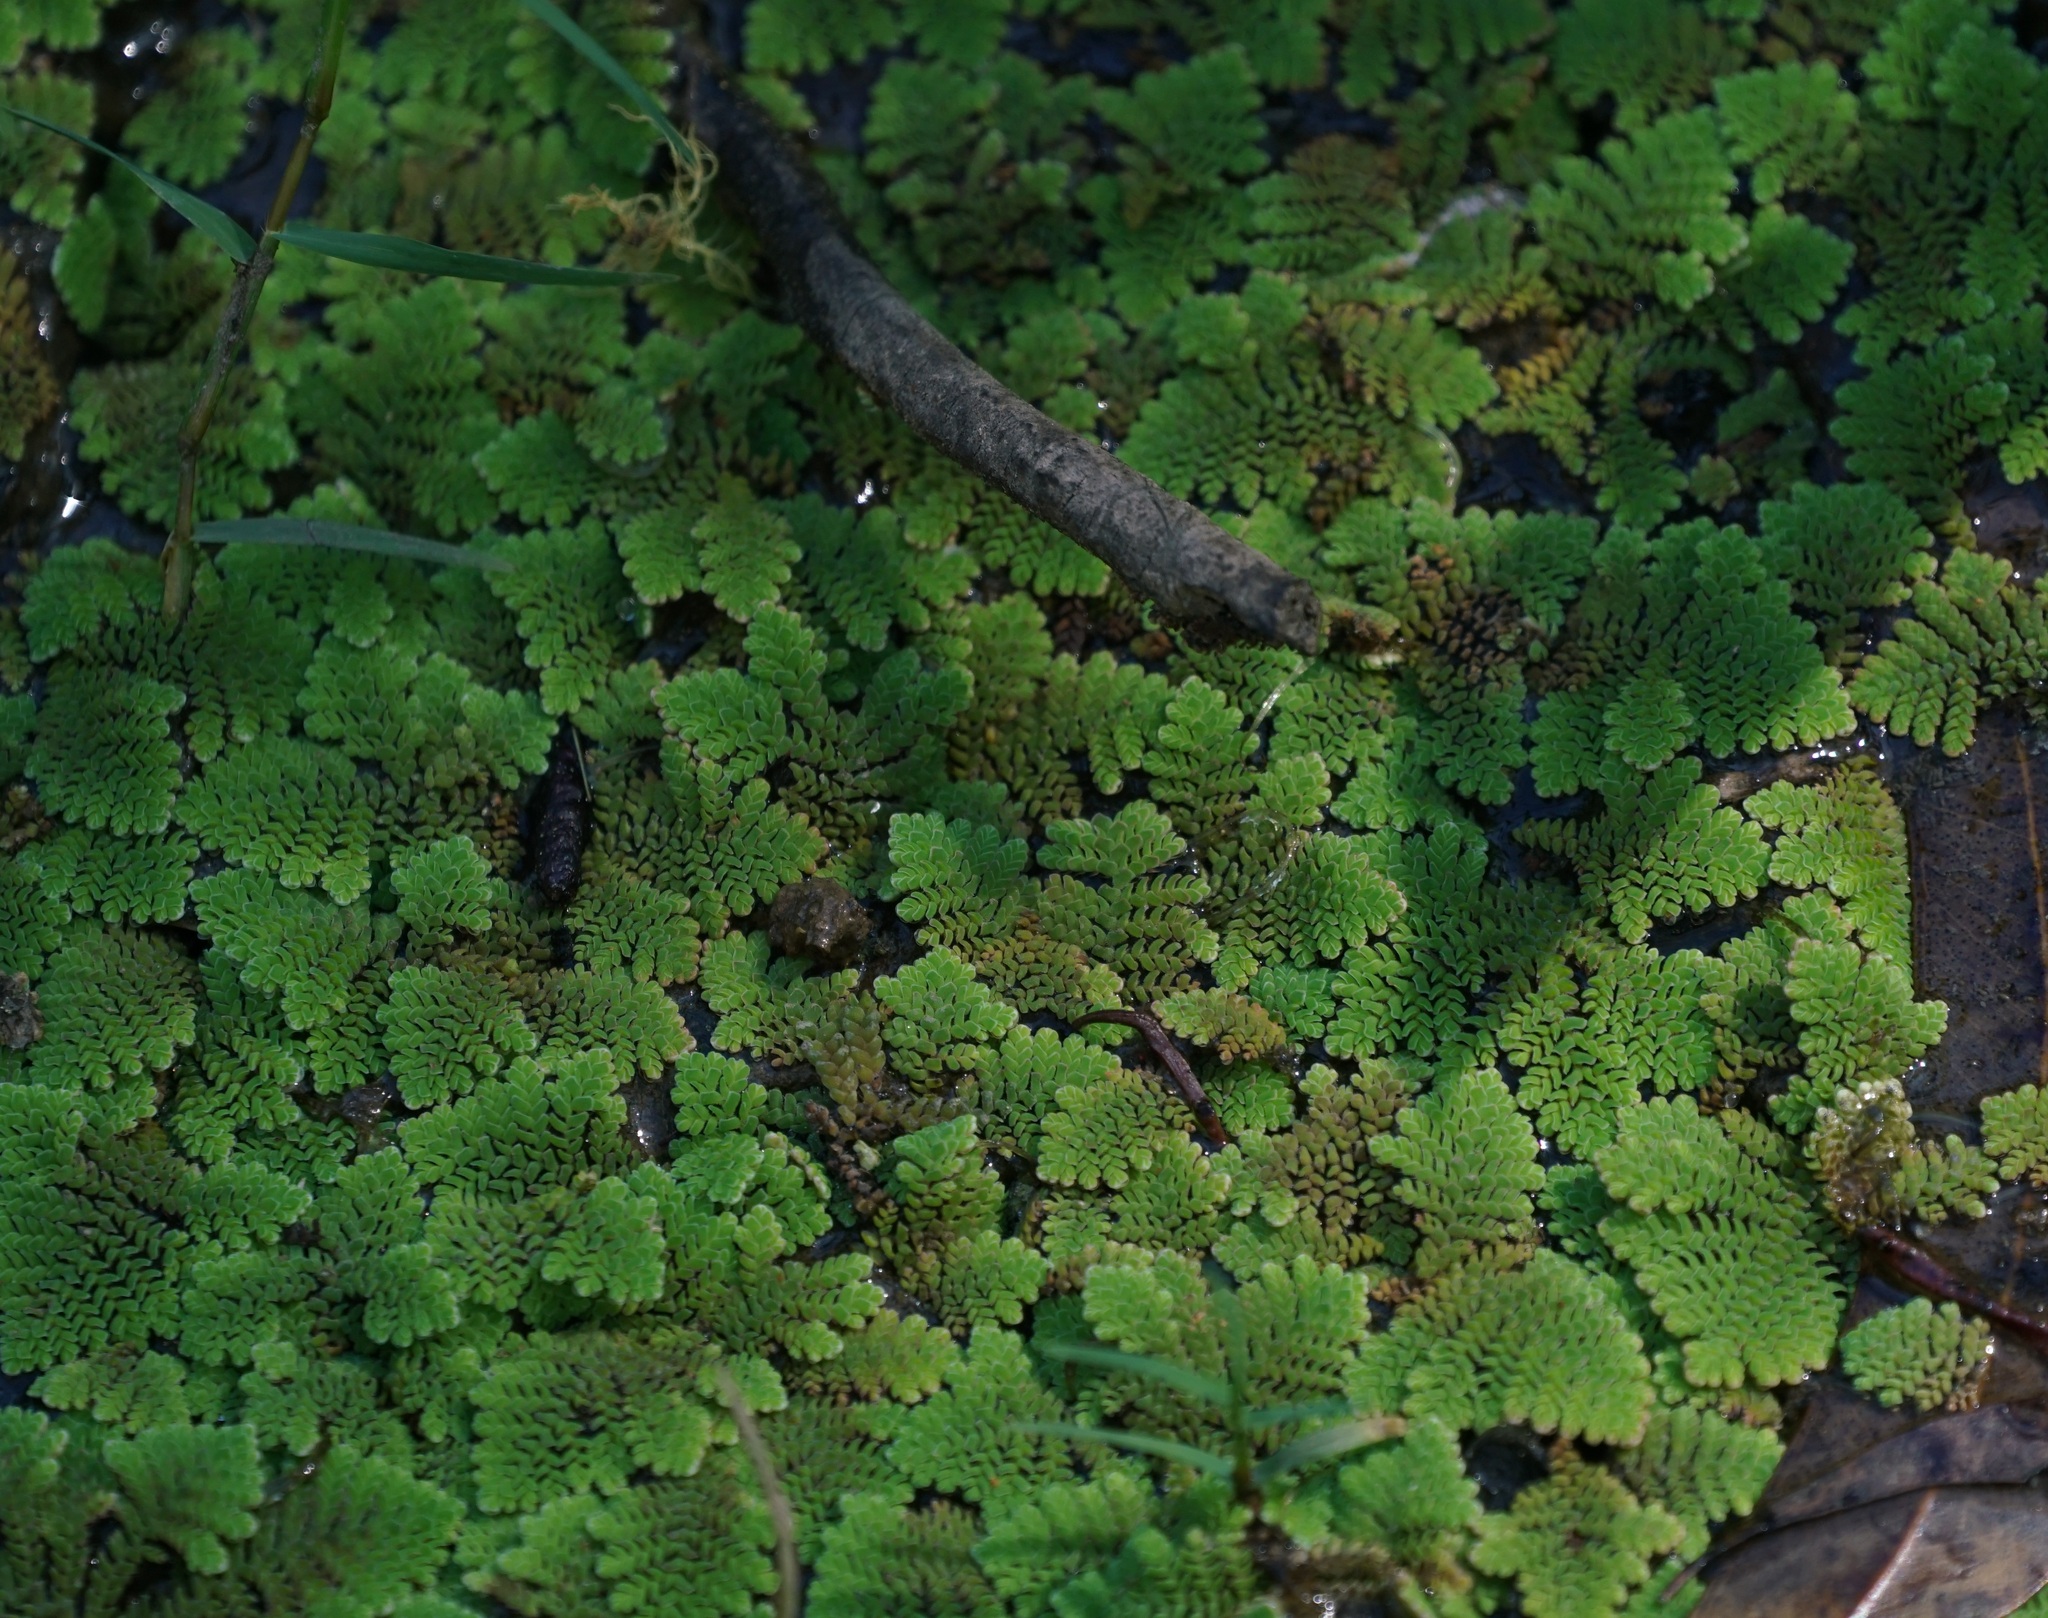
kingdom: Plantae
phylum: Tracheophyta
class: Polypodiopsida
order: Salviniales
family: Salviniaceae
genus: Azolla
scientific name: Azolla pinnata
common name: Ferny azolla
